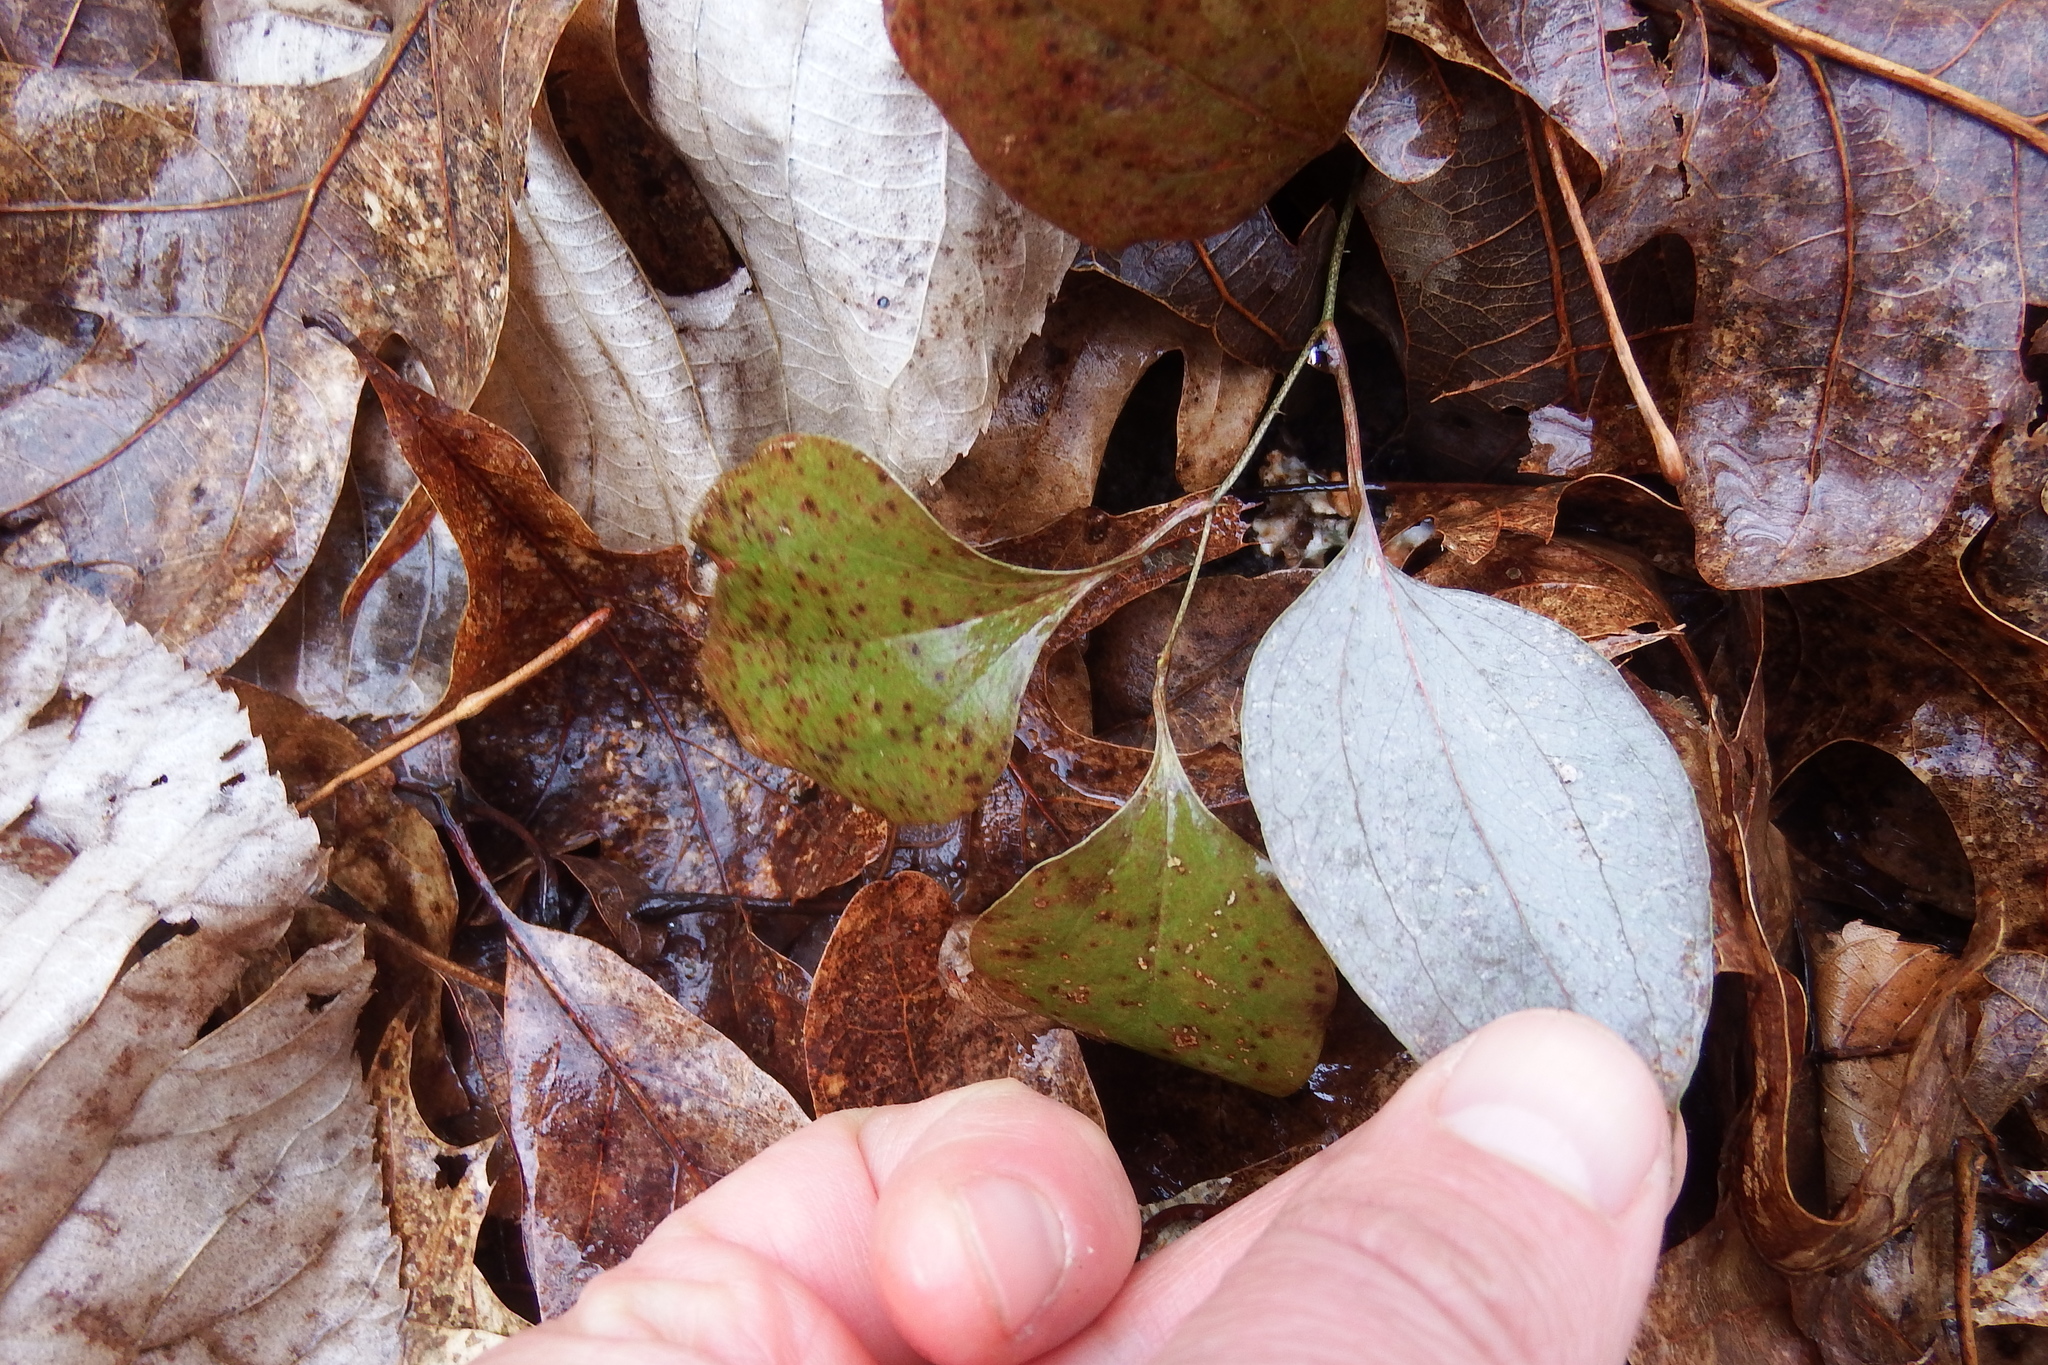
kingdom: Plantae
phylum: Tracheophyta
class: Liliopsida
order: Liliales
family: Smilacaceae
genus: Smilax
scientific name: Smilax glauca
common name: Cat greenbrier
